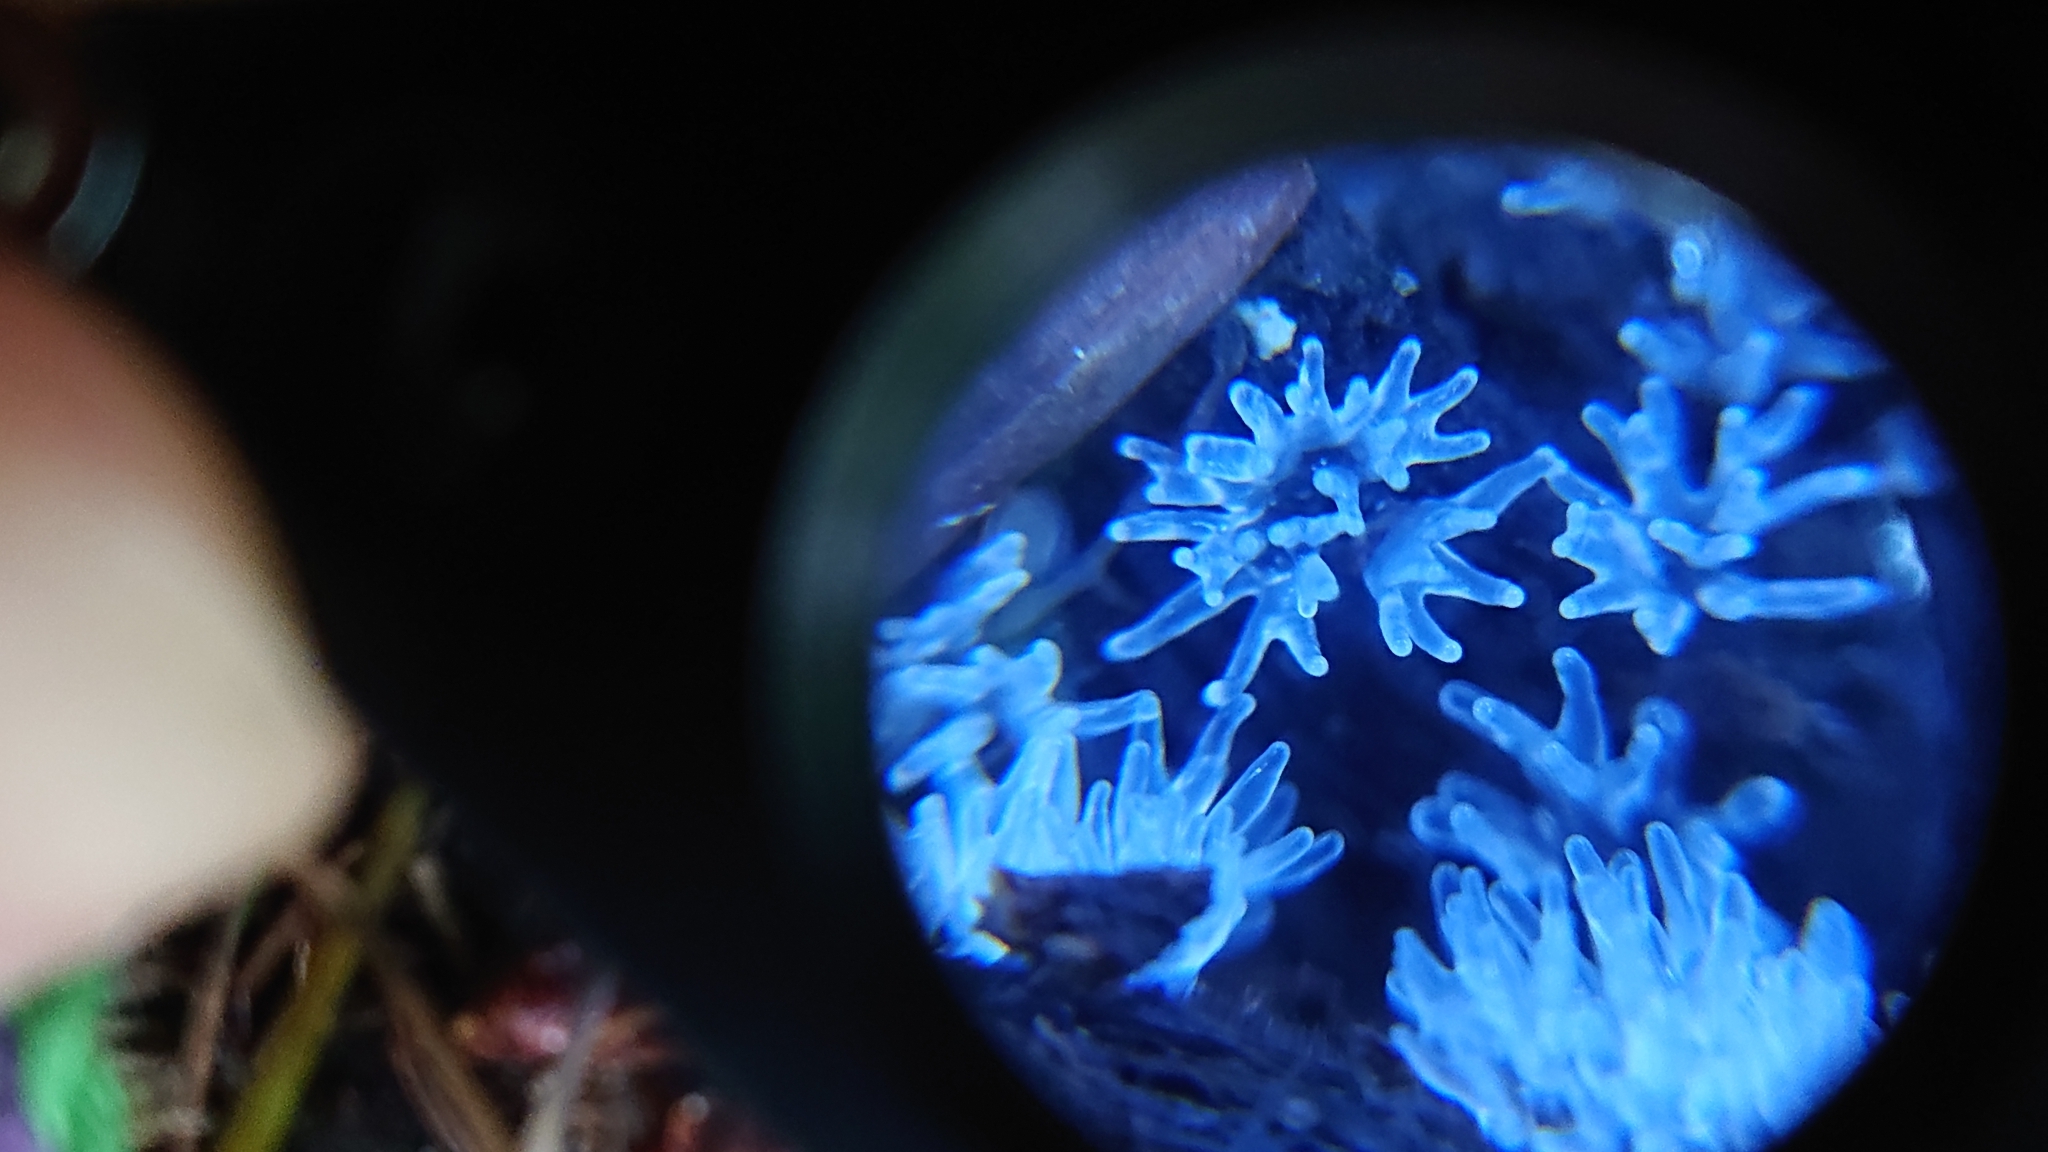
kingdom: Protozoa
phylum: Mycetozoa
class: Protosteliomycetes
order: Ceratiomyxales
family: Ceratiomyxaceae
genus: Ceratiomyxa
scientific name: Ceratiomyxa fruticulosa
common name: Honeycomb coral slime mold
